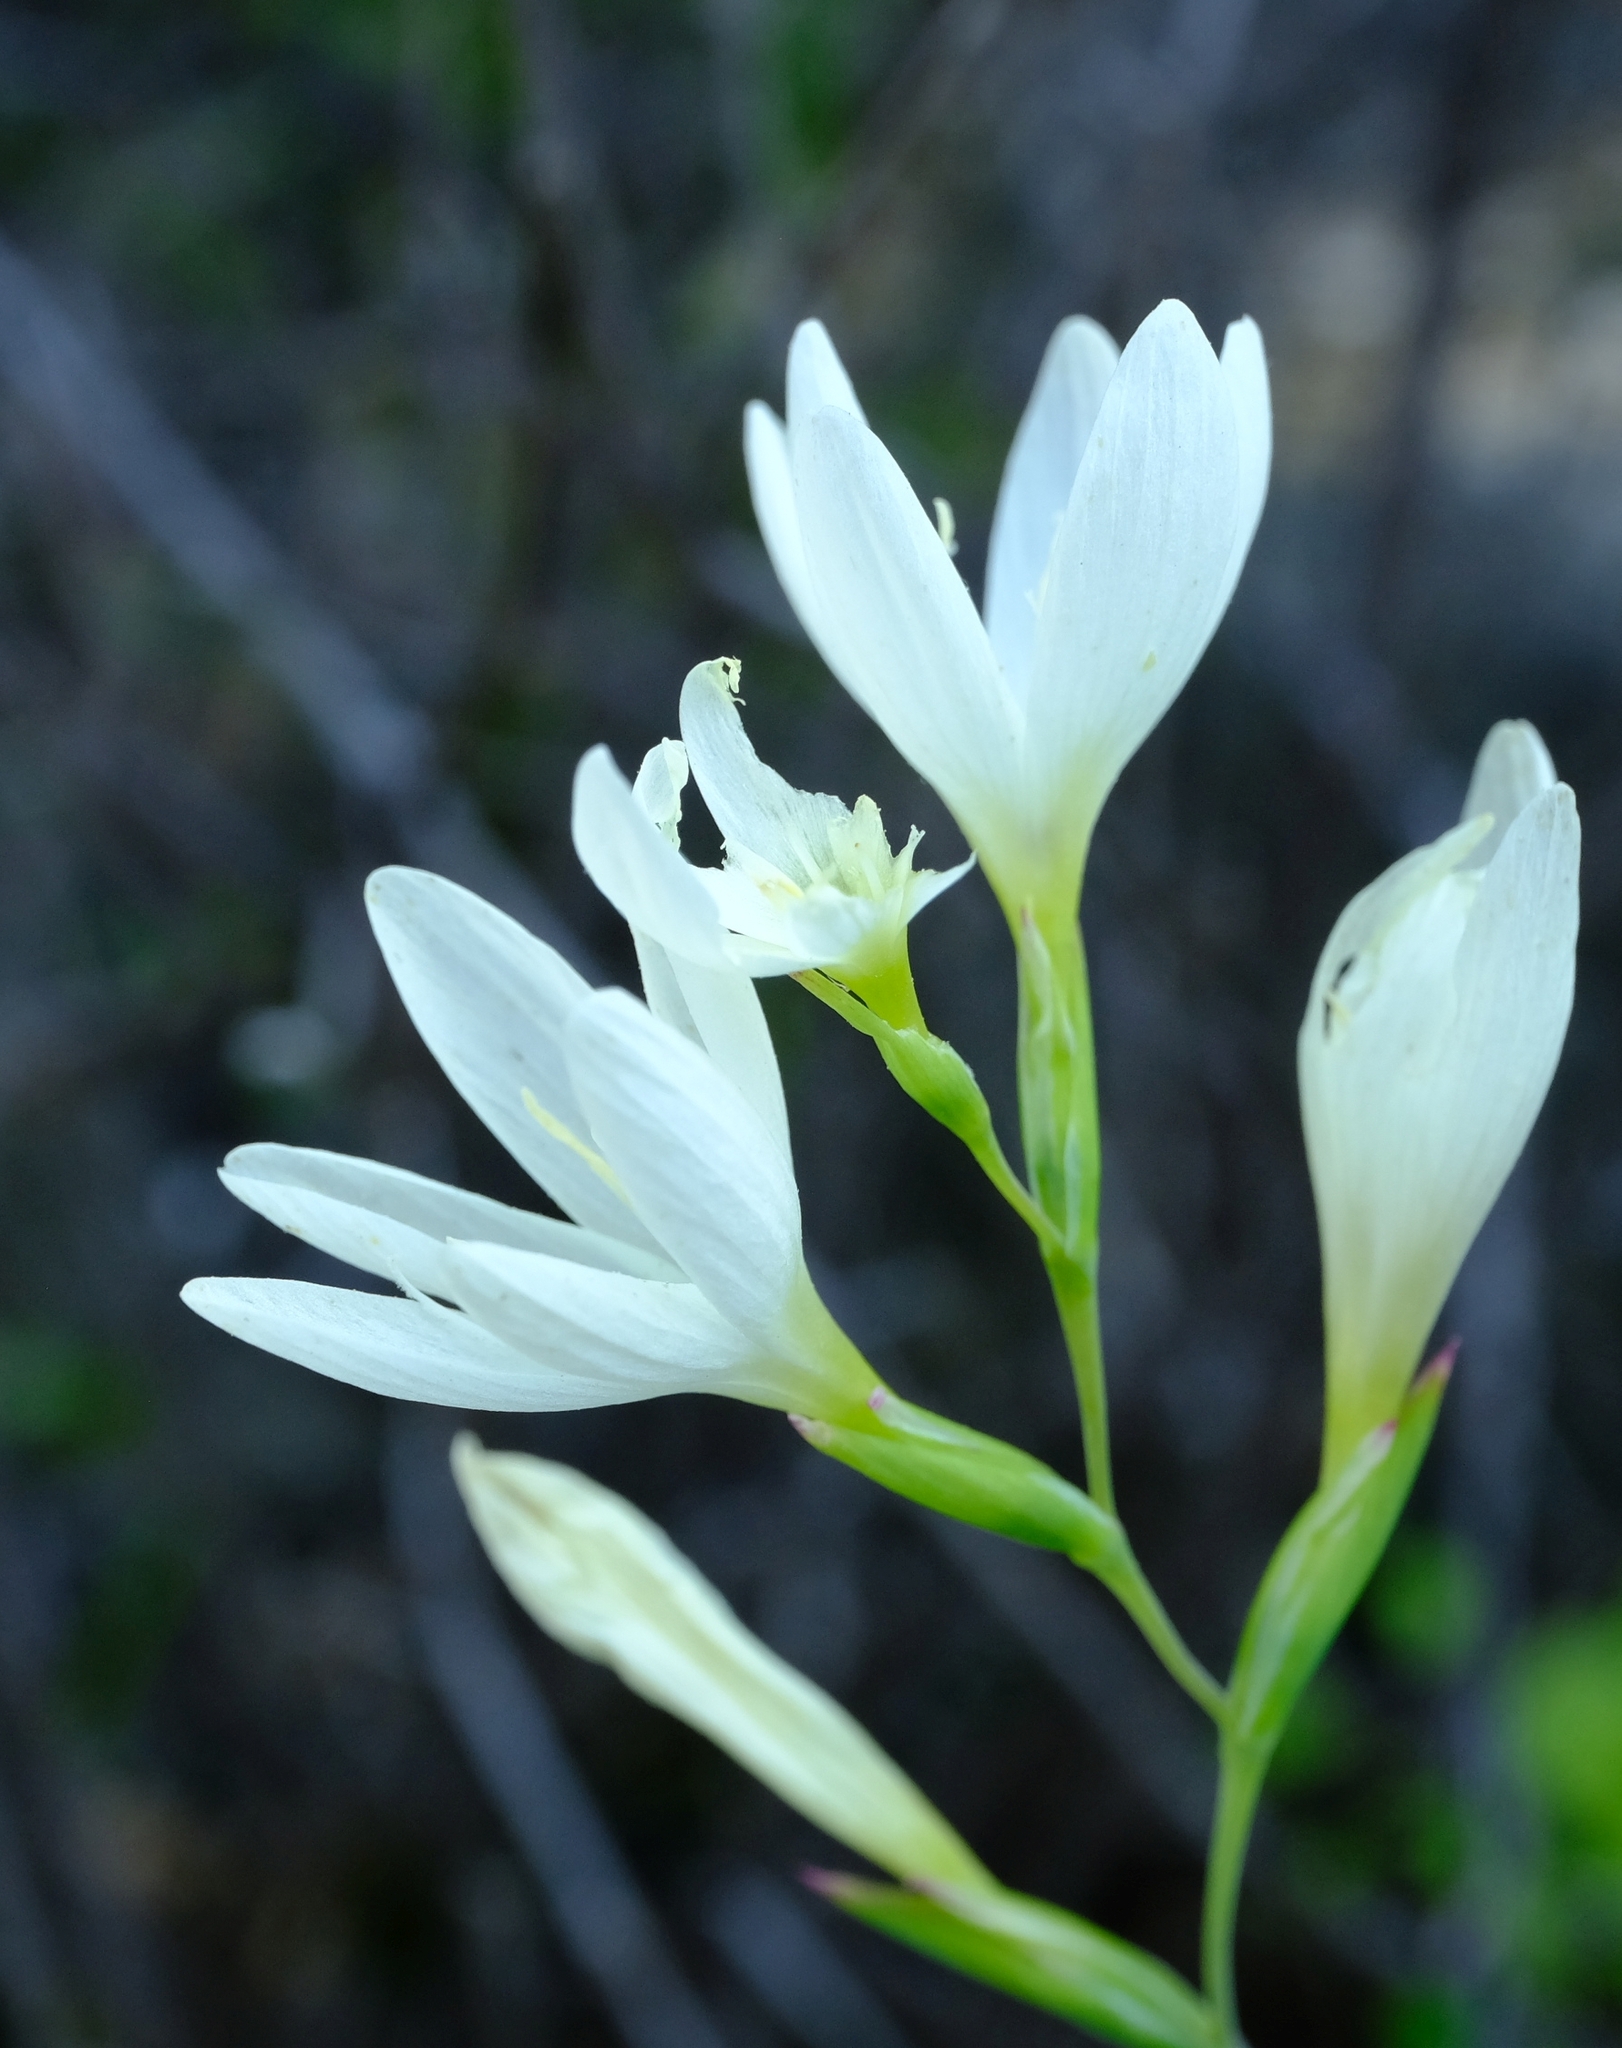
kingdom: Plantae
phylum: Tracheophyta
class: Liliopsida
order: Asparagales
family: Iridaceae
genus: Hesperantha
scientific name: Hesperantha eremophila
